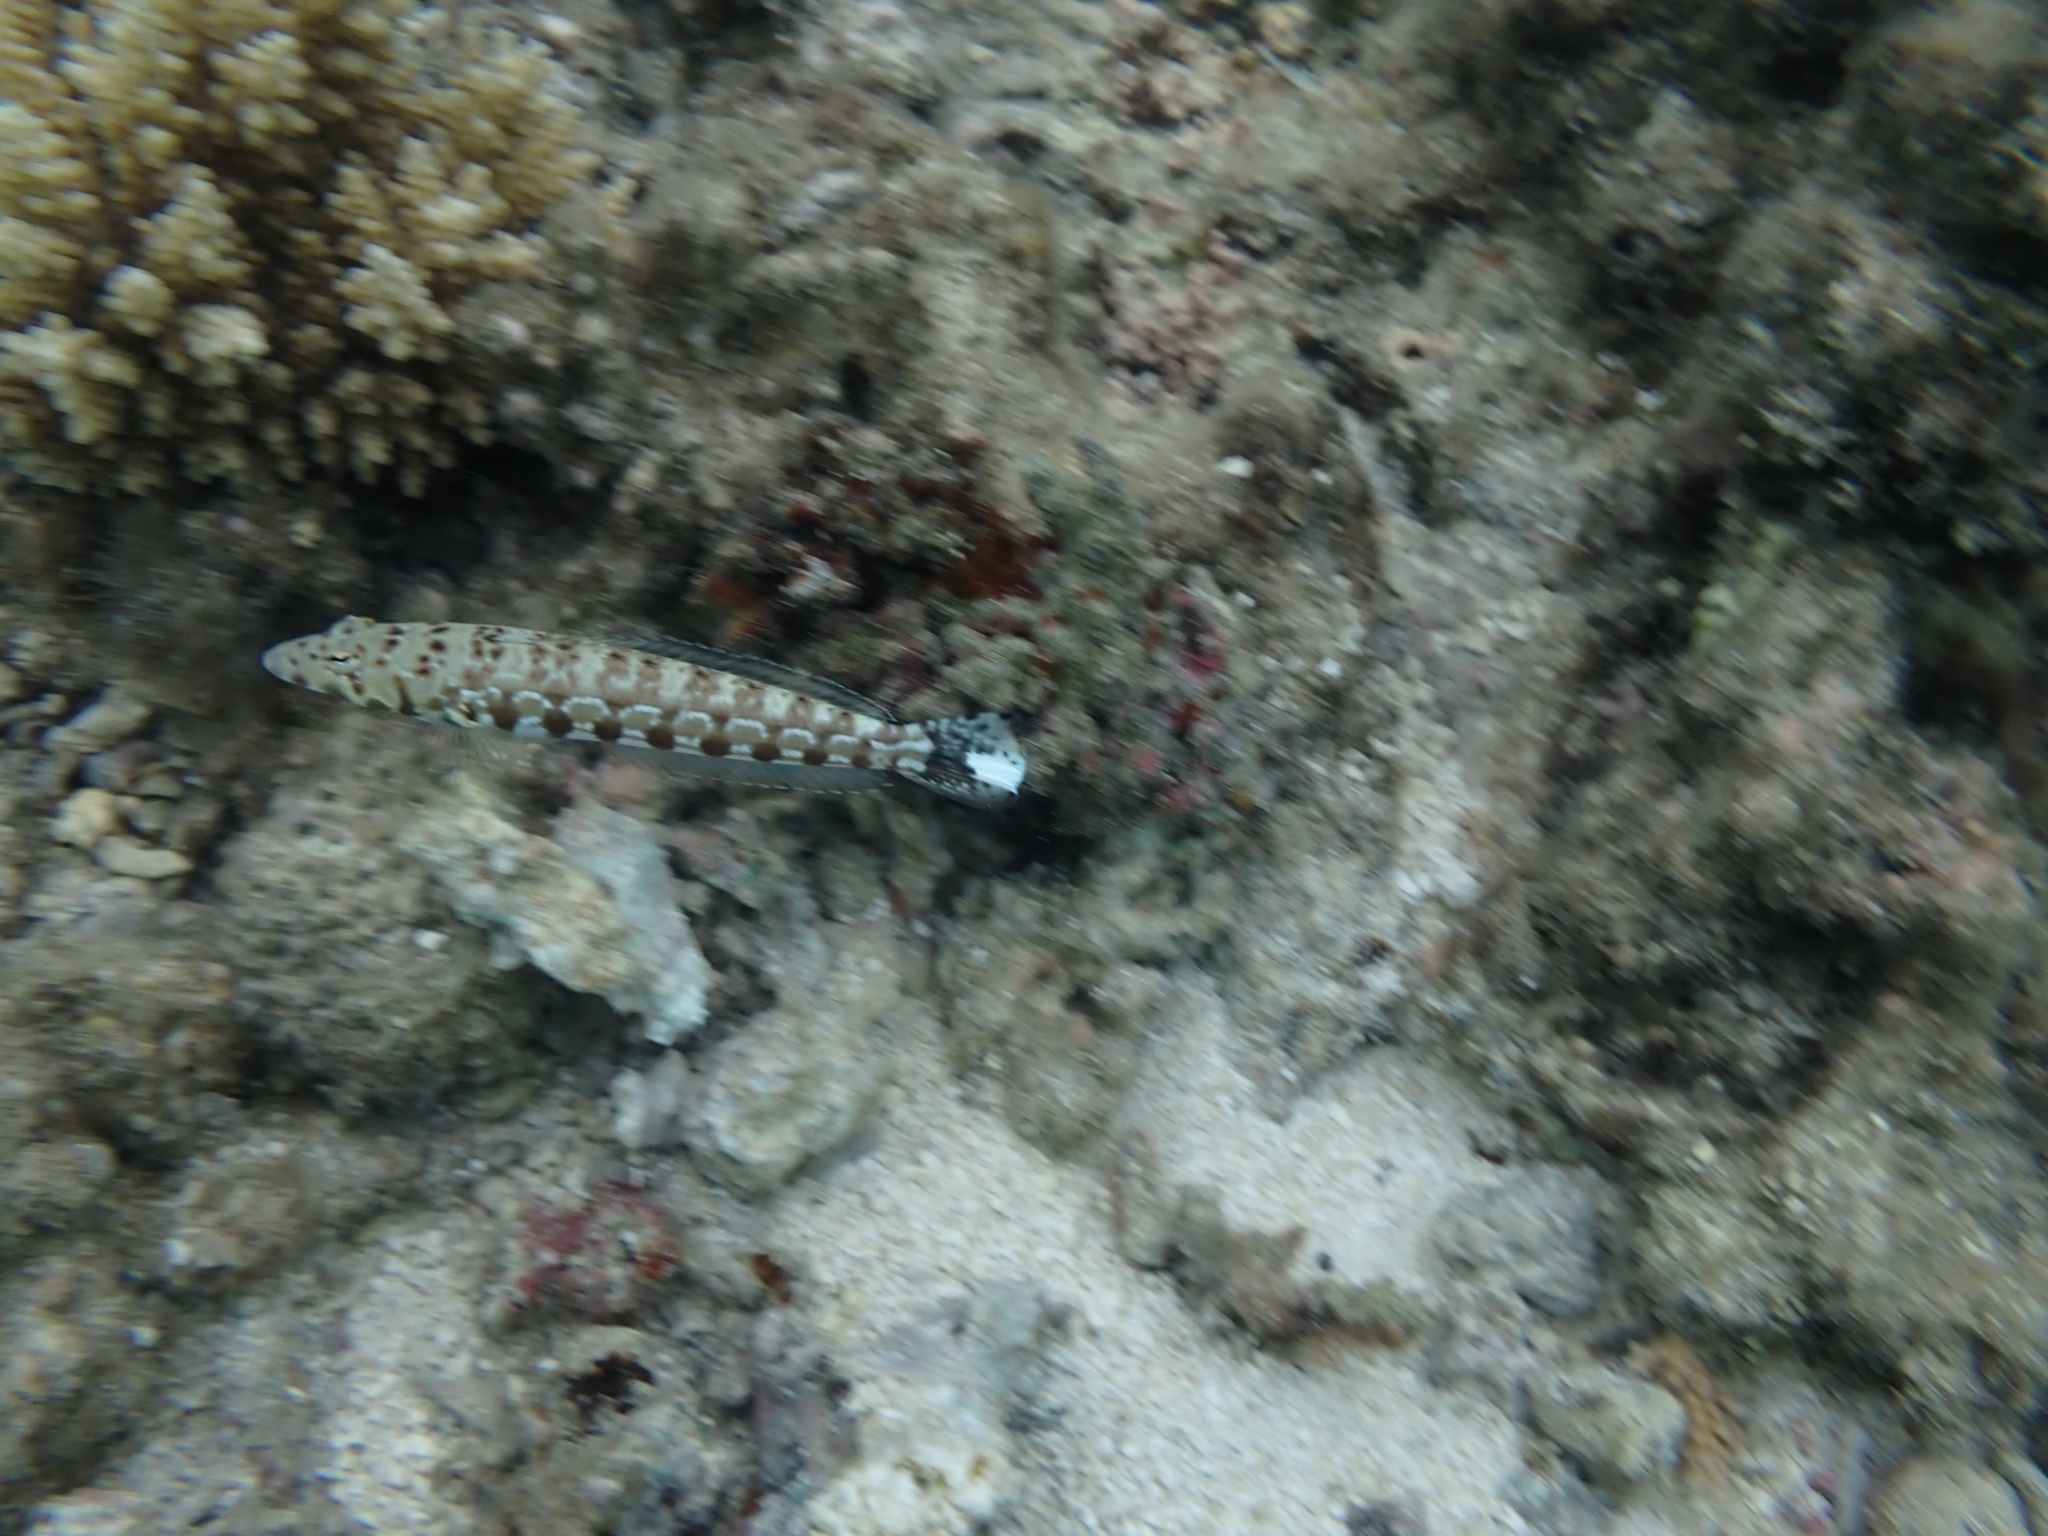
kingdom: Animalia
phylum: Chordata
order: Perciformes
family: Pinguipedidae
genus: Parapercis
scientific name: Parapercis millepunctata
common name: Black-dotted sandperch
